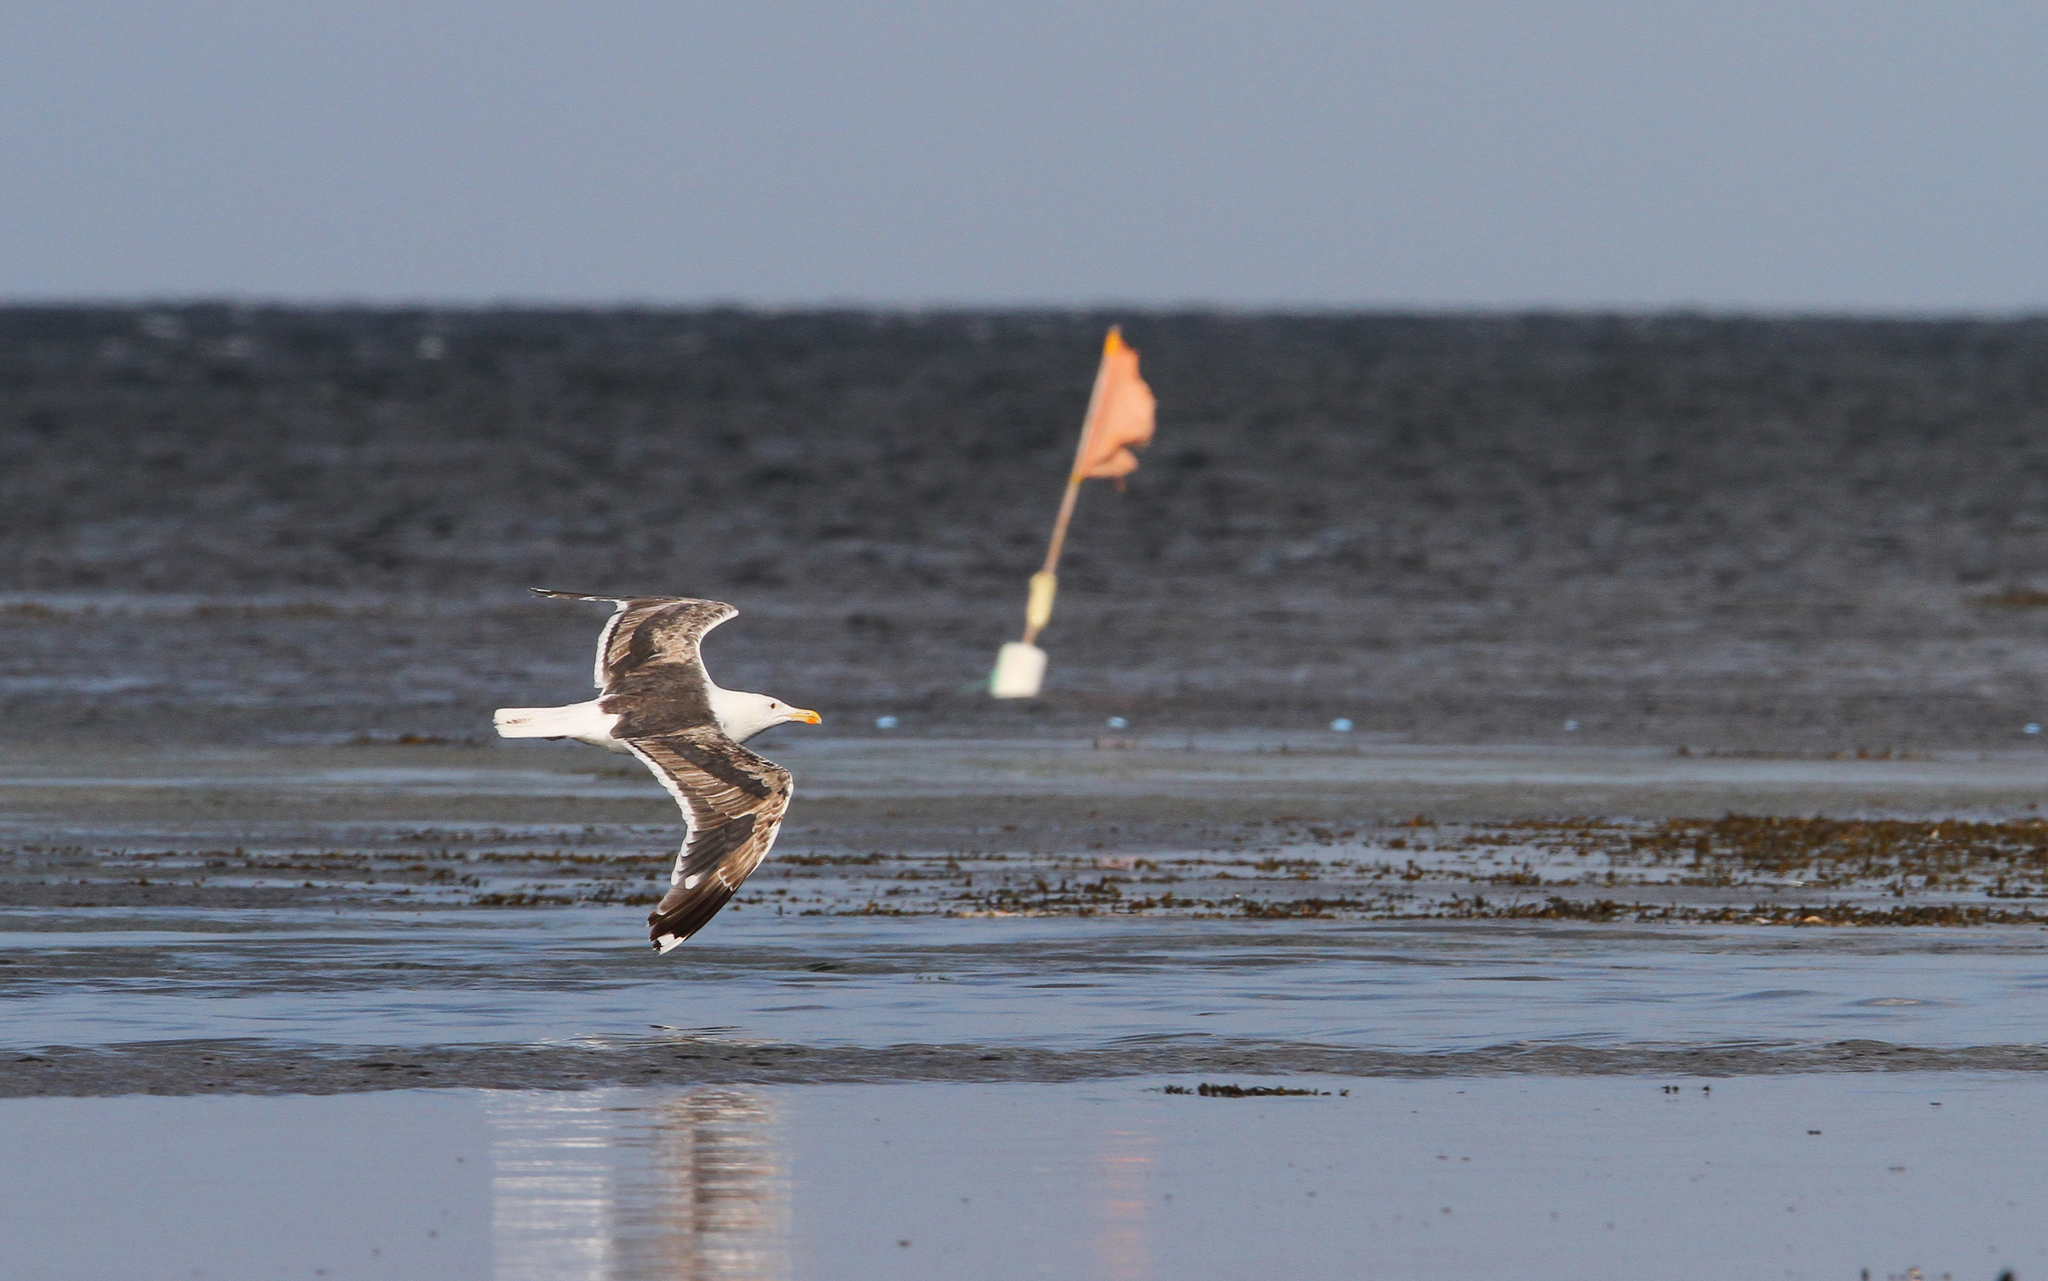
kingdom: Animalia
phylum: Chordata
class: Aves
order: Charadriiformes
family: Laridae
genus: Larus
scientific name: Larus marinus
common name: Great black-backed gull
